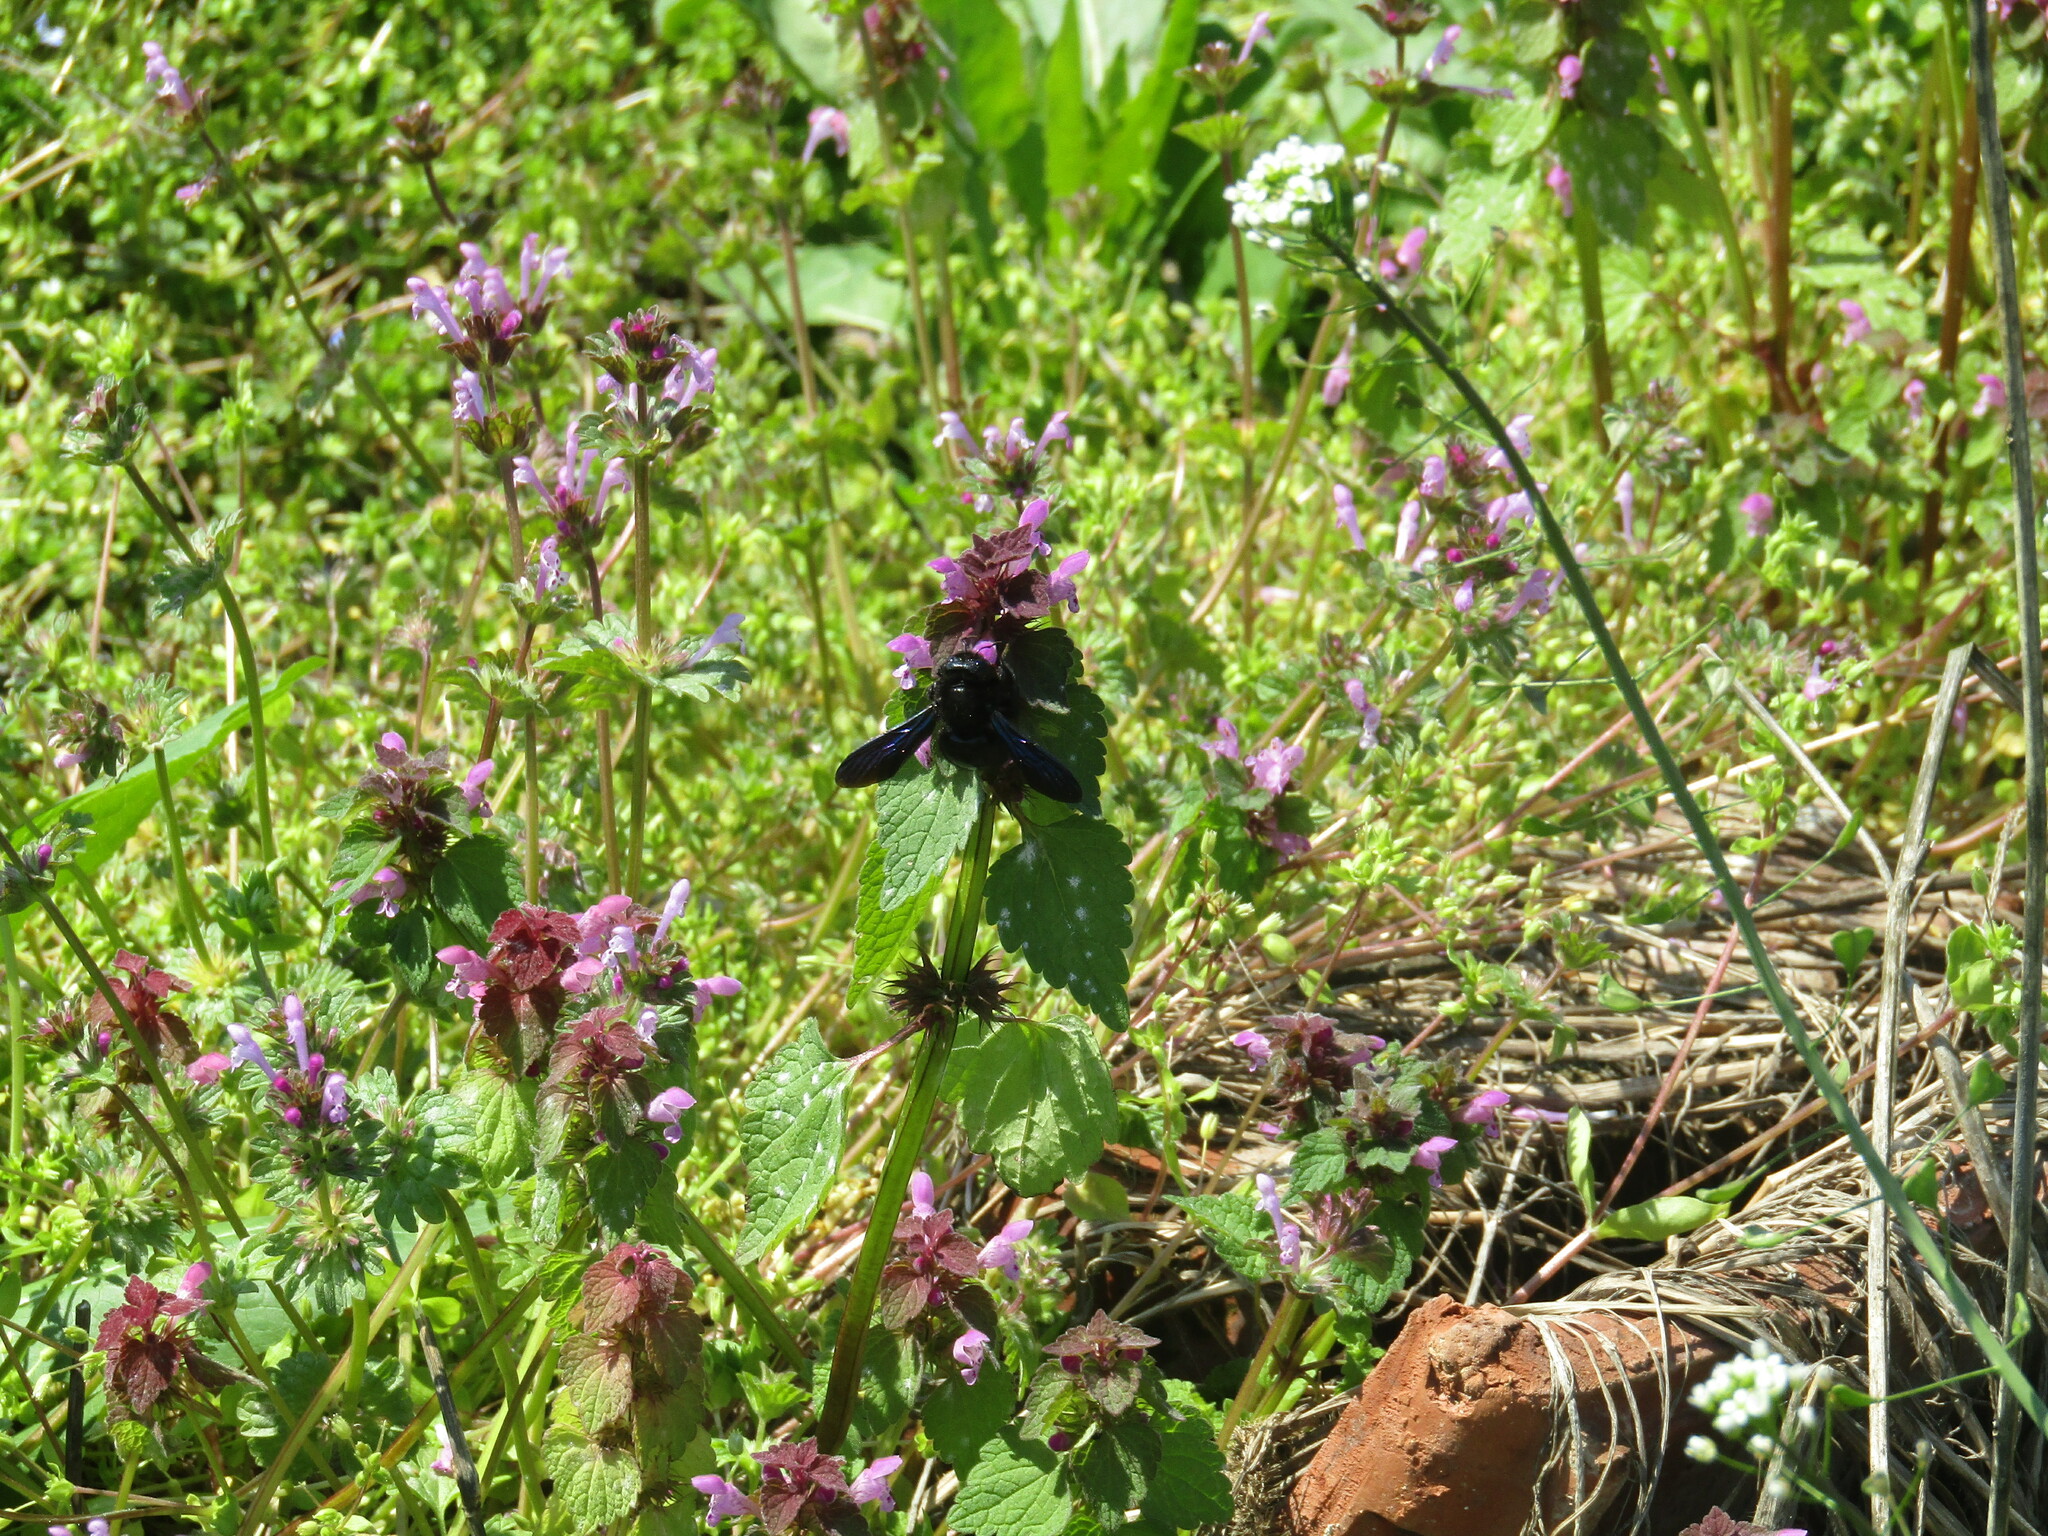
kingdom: Animalia
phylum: Arthropoda
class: Insecta
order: Hymenoptera
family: Apidae
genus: Xylocopa
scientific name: Xylocopa violacea
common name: Violet carpenter bee
